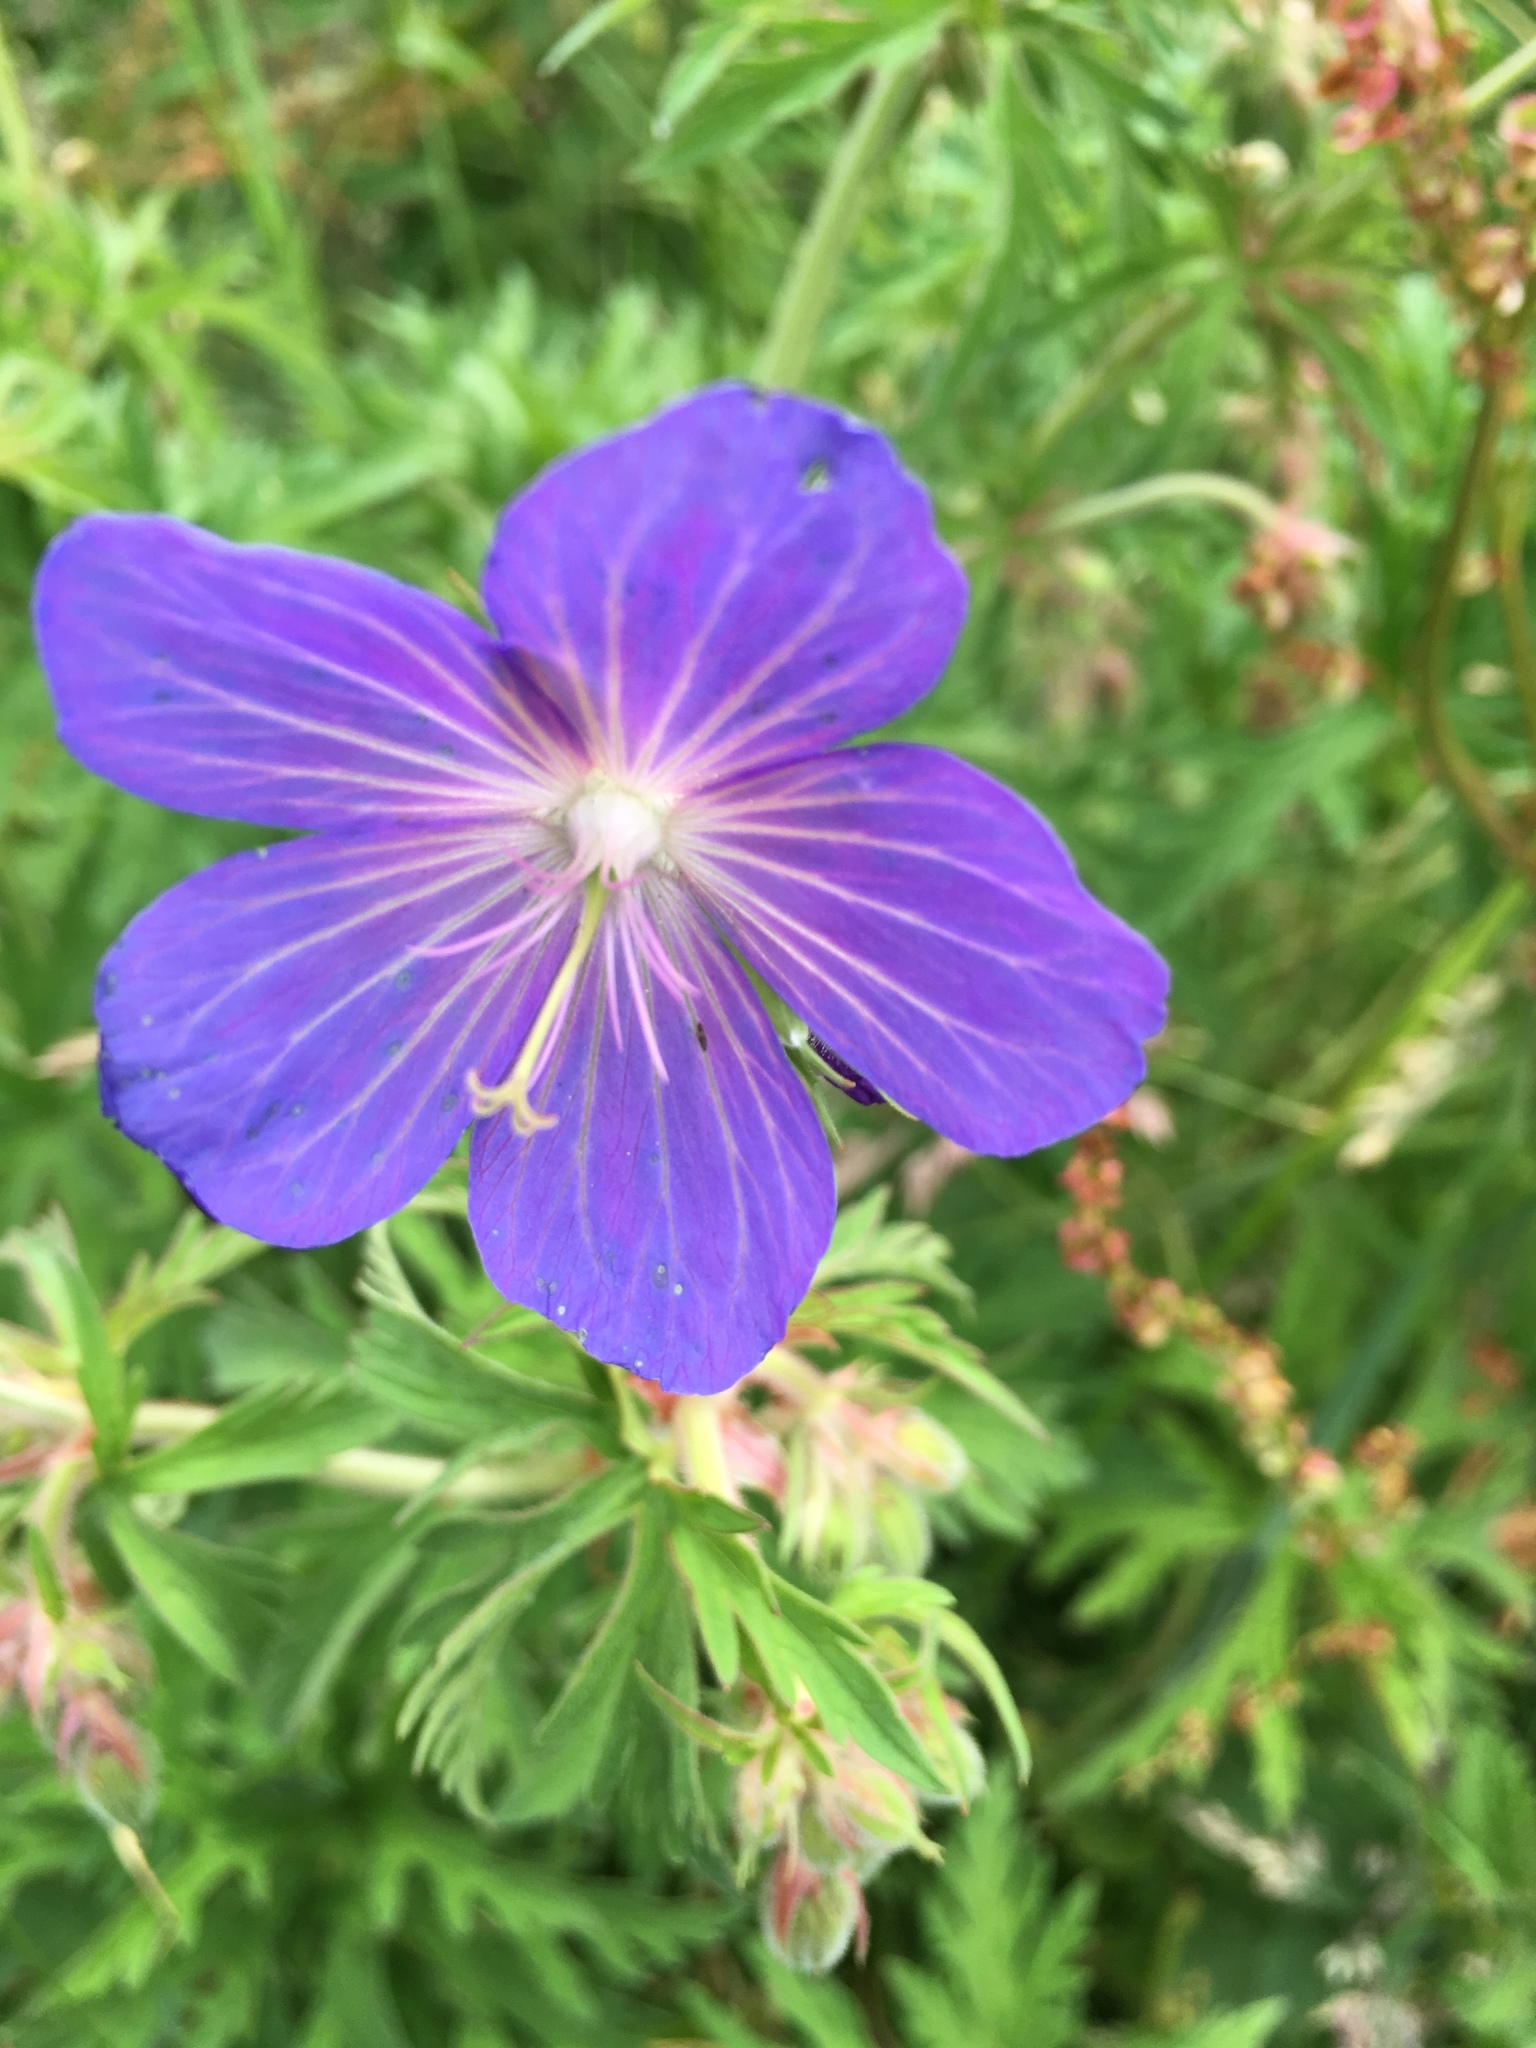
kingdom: Plantae
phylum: Tracheophyta
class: Magnoliopsida
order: Geraniales
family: Geraniaceae
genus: Geranium
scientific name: Geranium pratense
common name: Meadow crane's-bill
